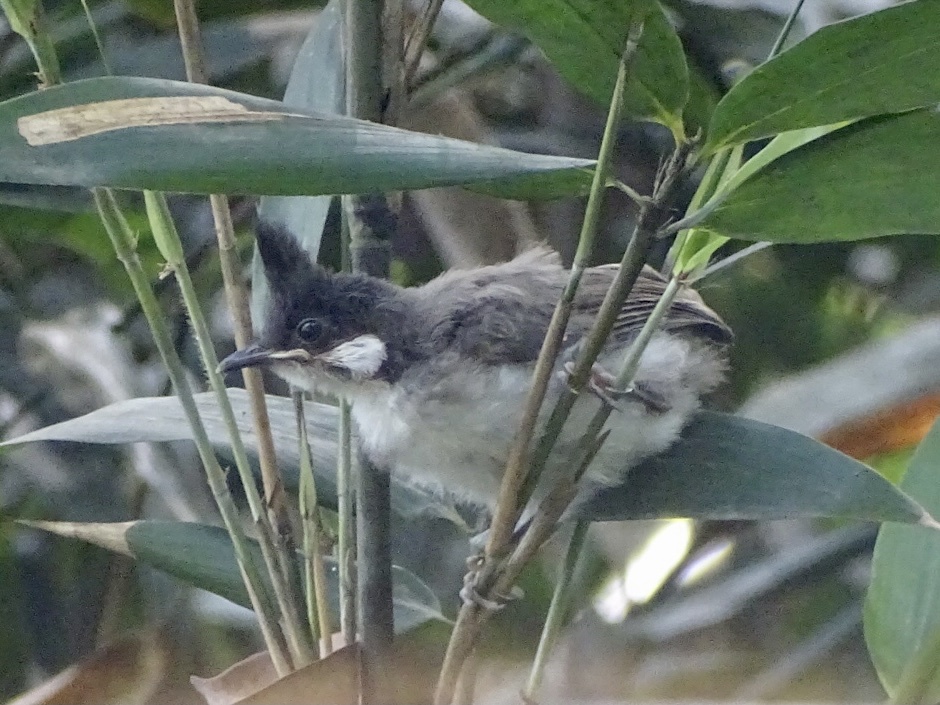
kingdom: Animalia
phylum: Chordata
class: Aves
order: Passeriformes
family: Pycnonotidae
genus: Pycnonotus
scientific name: Pycnonotus jocosus
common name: Red-whiskered bulbul
